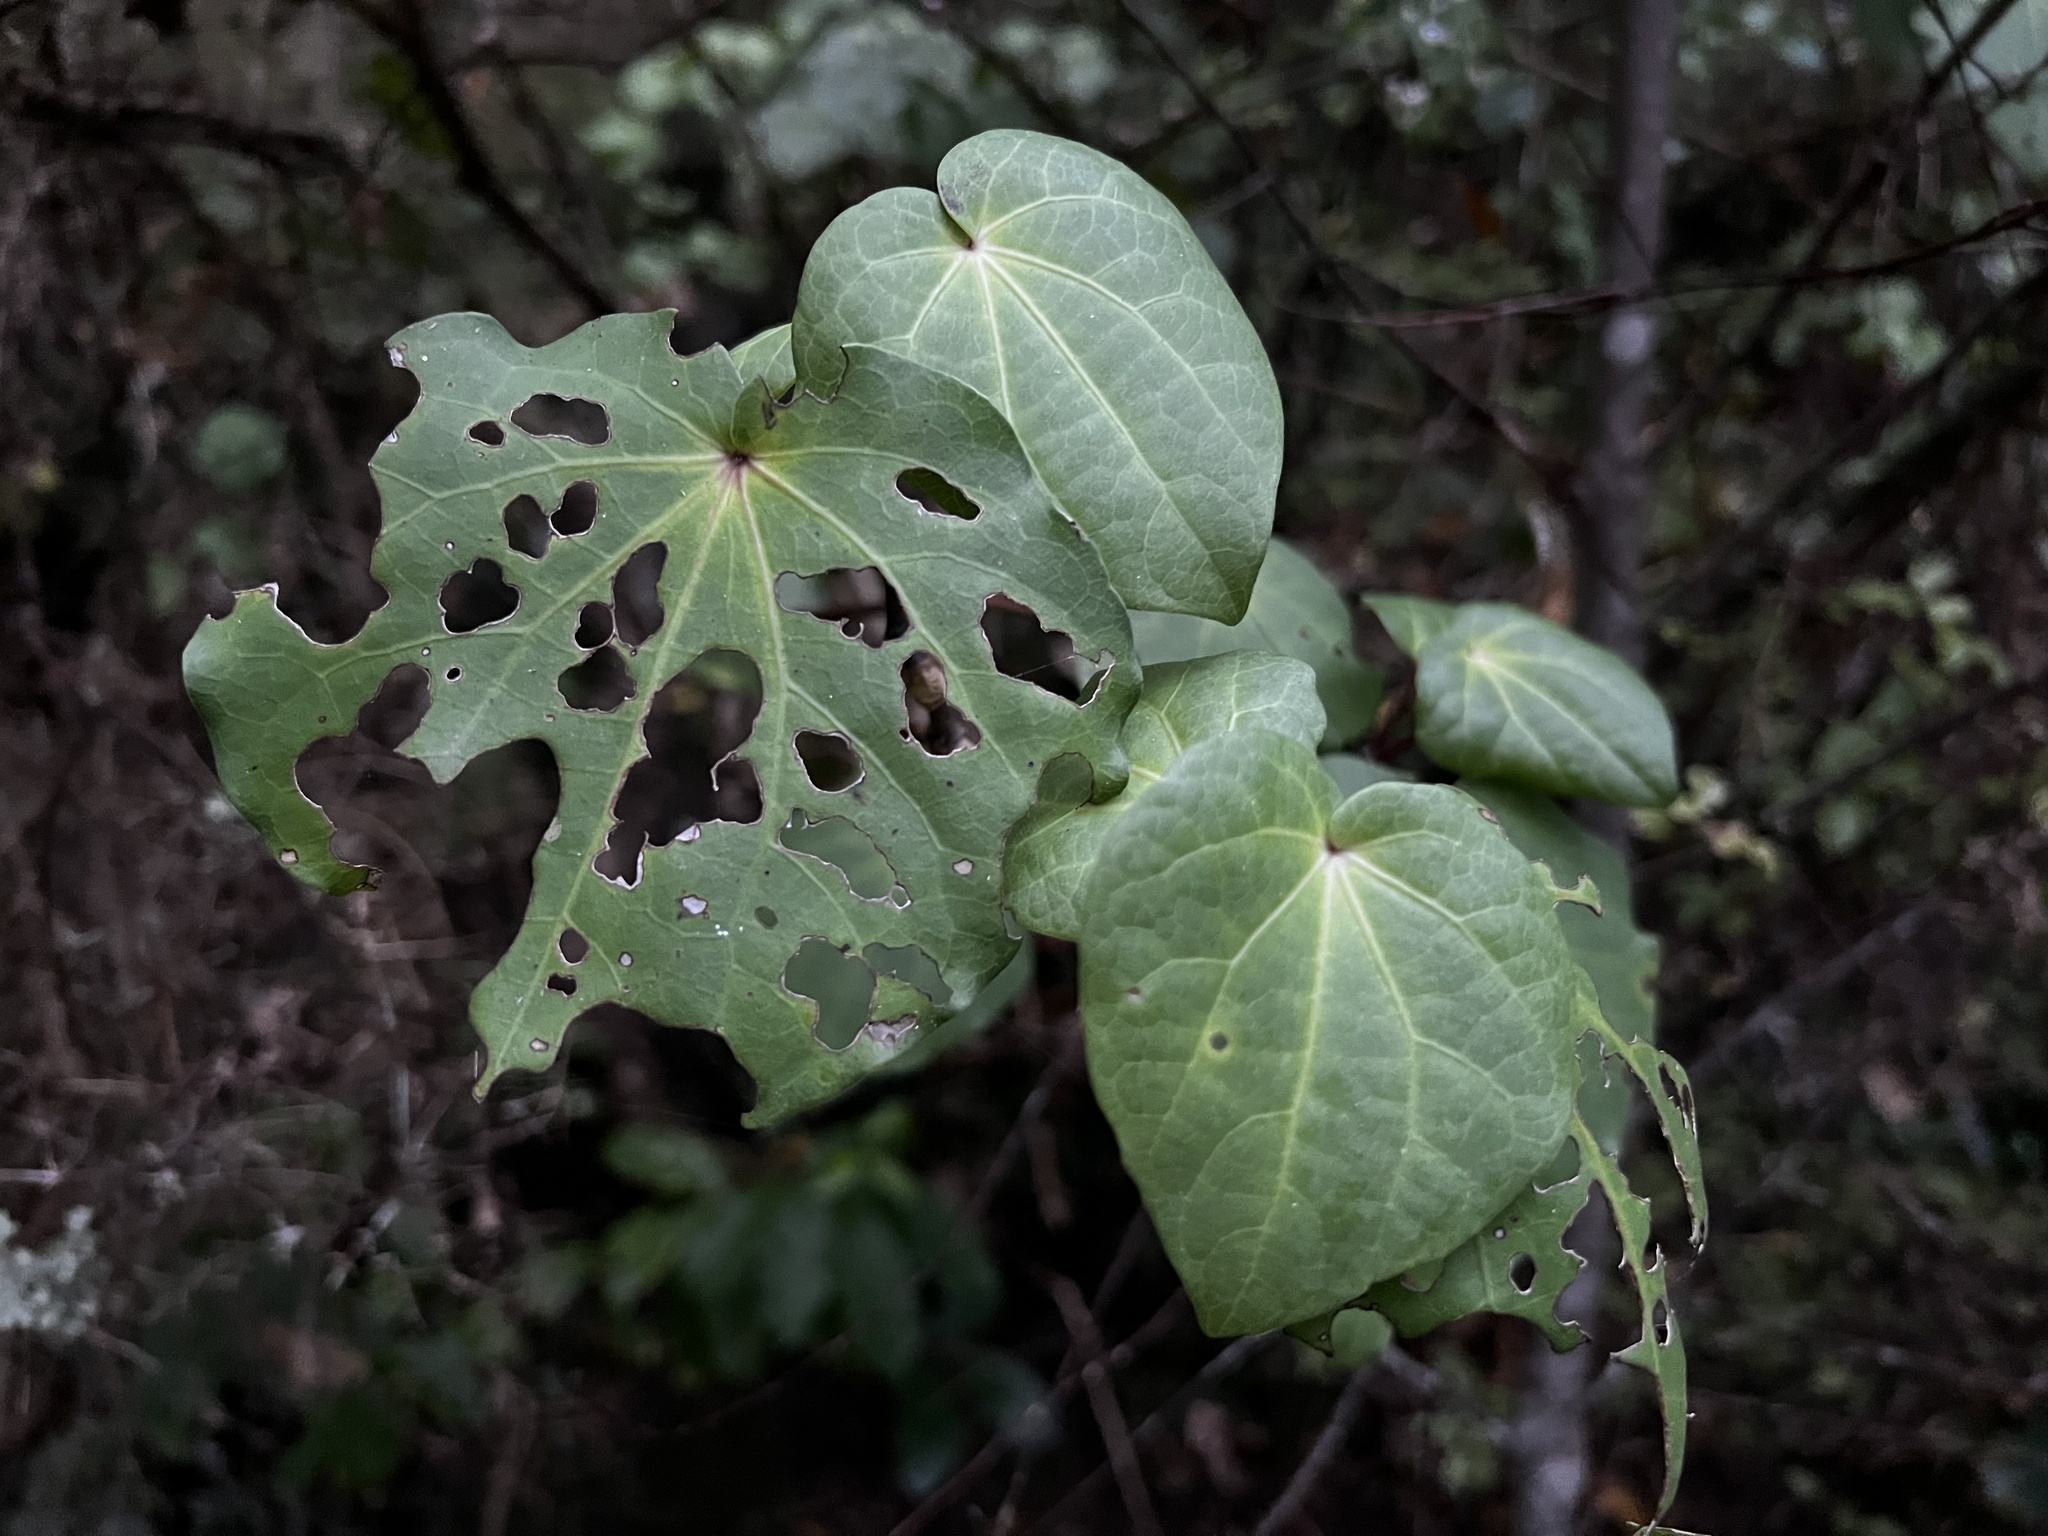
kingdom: Plantae
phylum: Tracheophyta
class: Magnoliopsida
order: Piperales
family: Piperaceae
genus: Macropiper
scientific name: Macropiper excelsum
